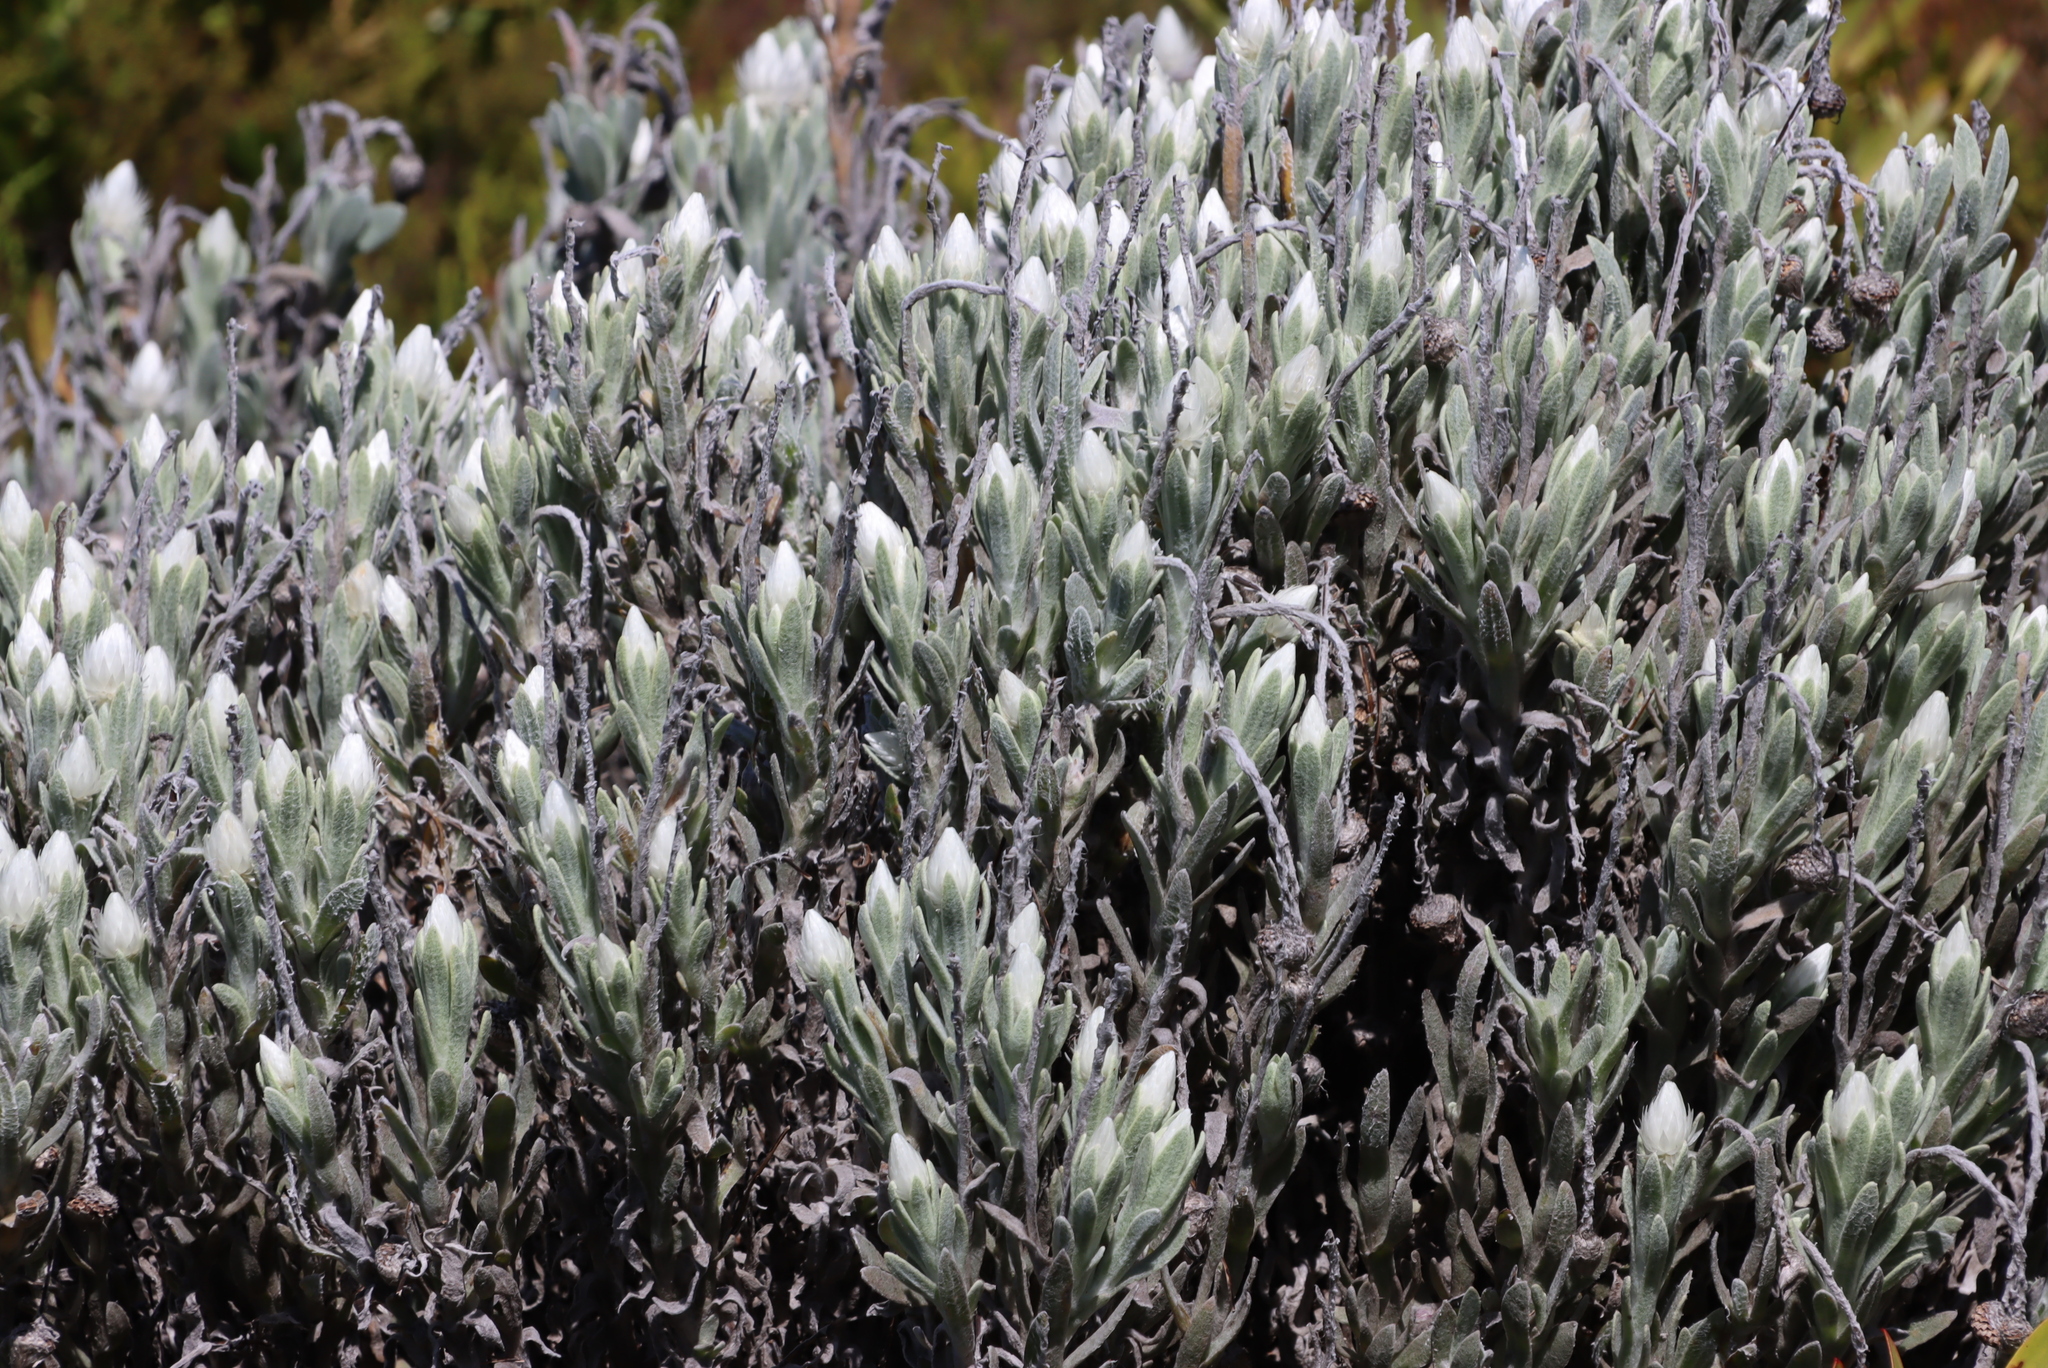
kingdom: Plantae
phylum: Tracheophyta
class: Magnoliopsida
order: Asterales
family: Asteraceae
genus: Syncarpha
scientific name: Syncarpha vestita
